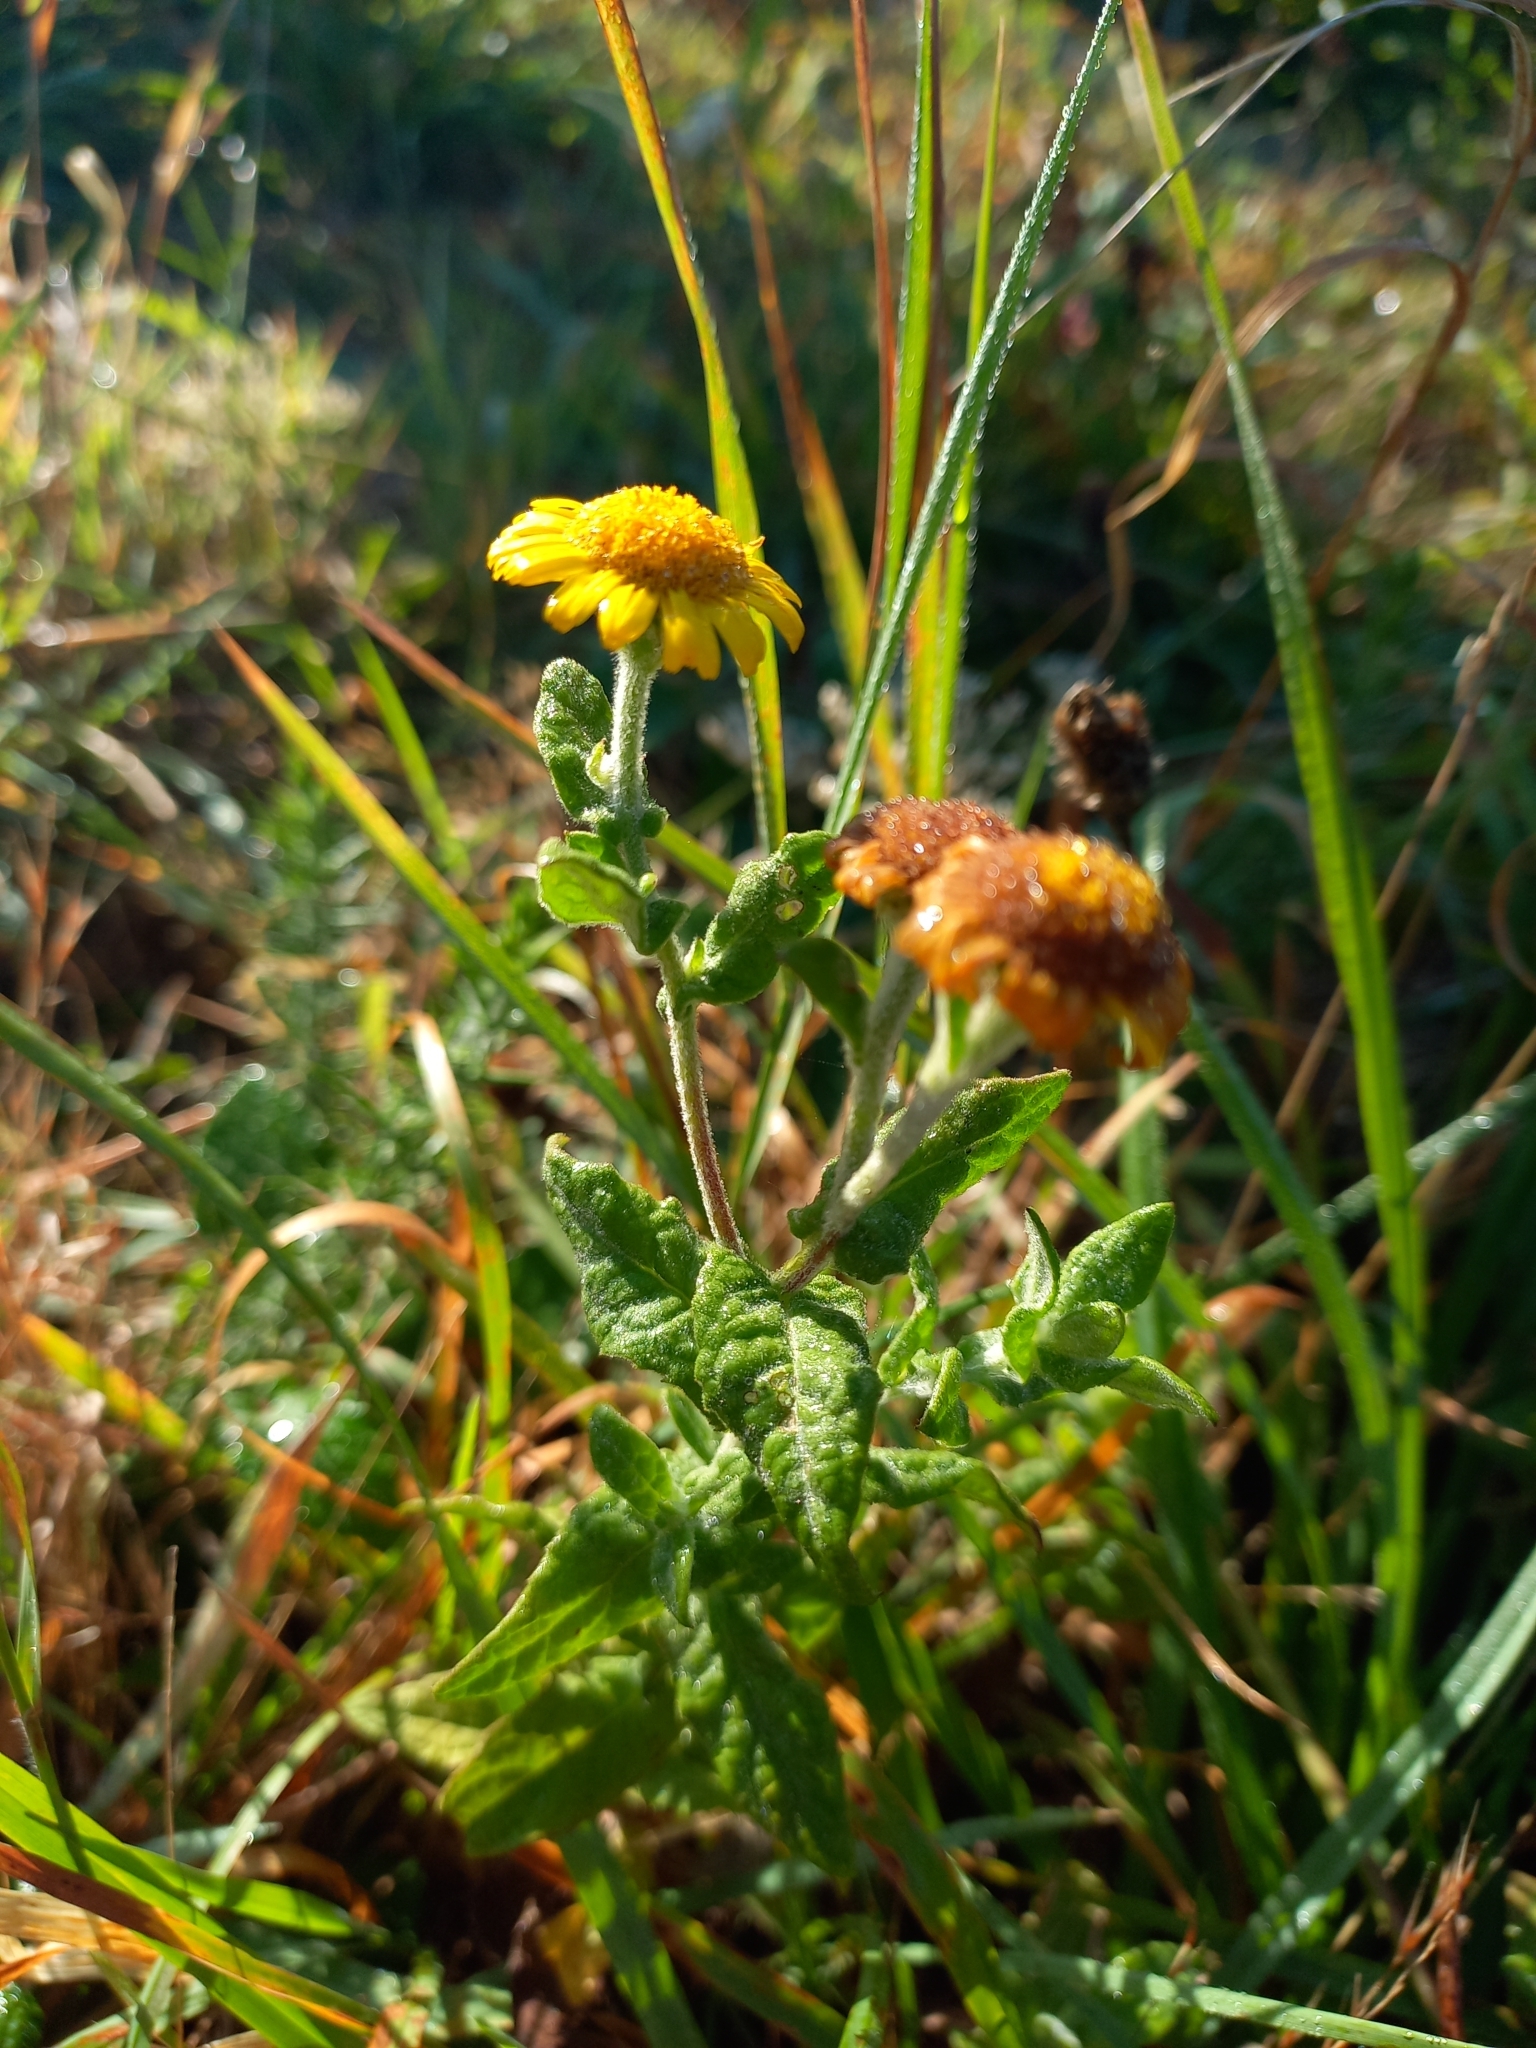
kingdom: Plantae
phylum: Tracheophyta
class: Magnoliopsida
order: Asterales
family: Asteraceae
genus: Pulicaria
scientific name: Pulicaria dysenterica
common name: Common fleabane
